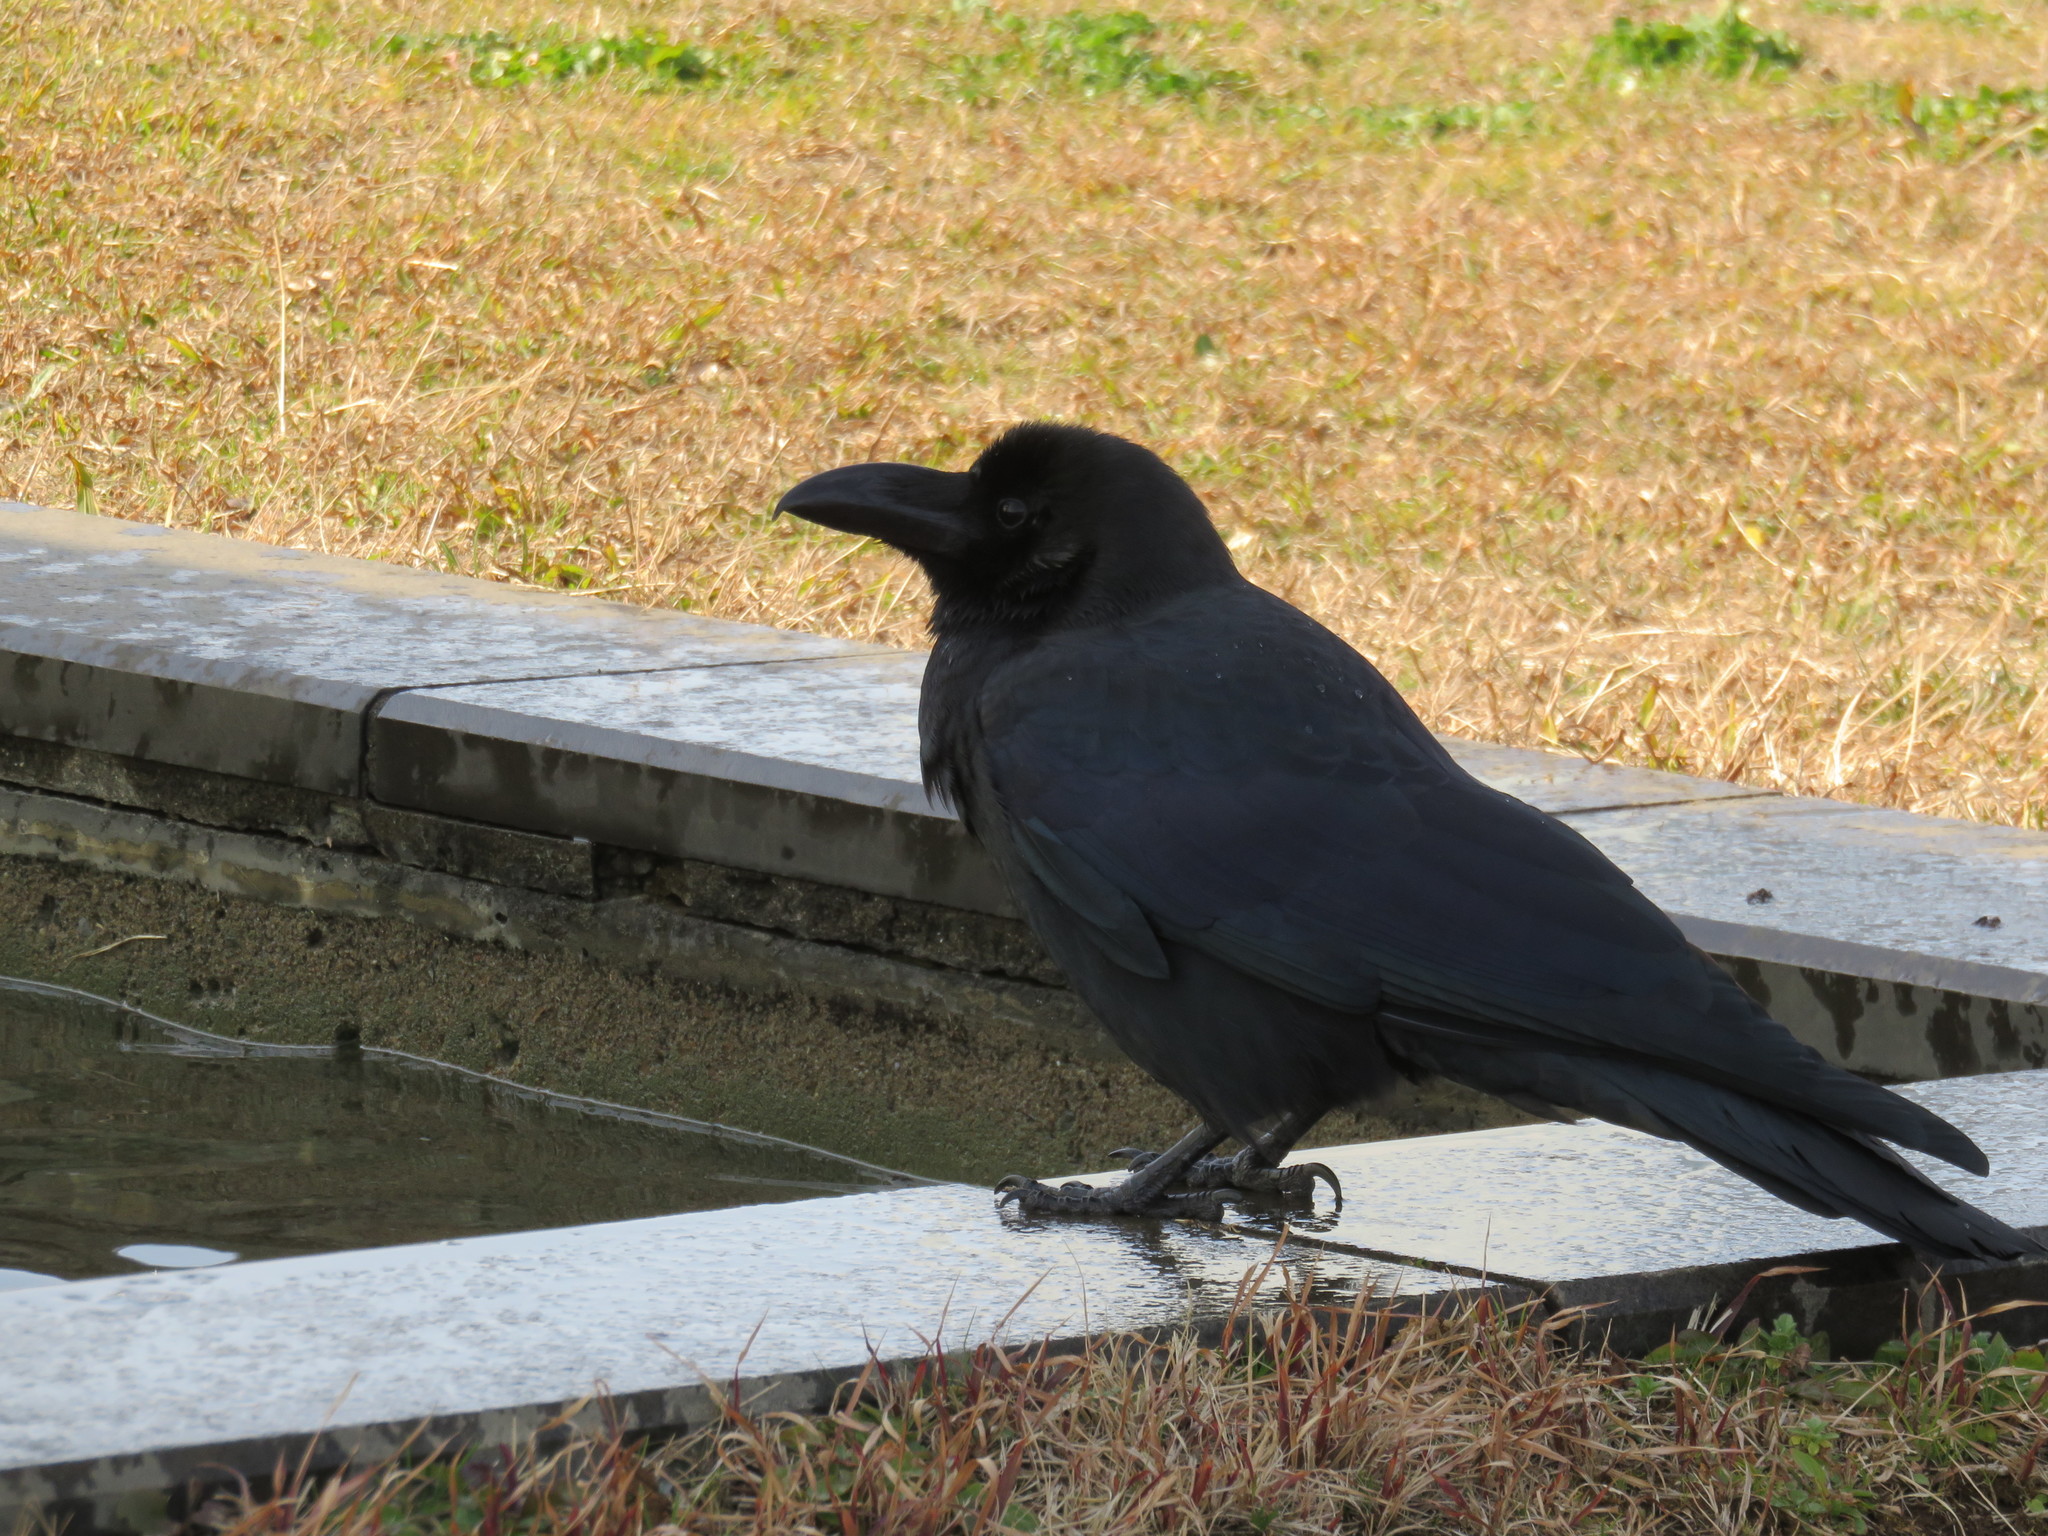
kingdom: Animalia
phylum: Chordata
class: Aves
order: Passeriformes
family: Corvidae
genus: Corvus
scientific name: Corvus macrorhynchos
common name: Large-billed crow
